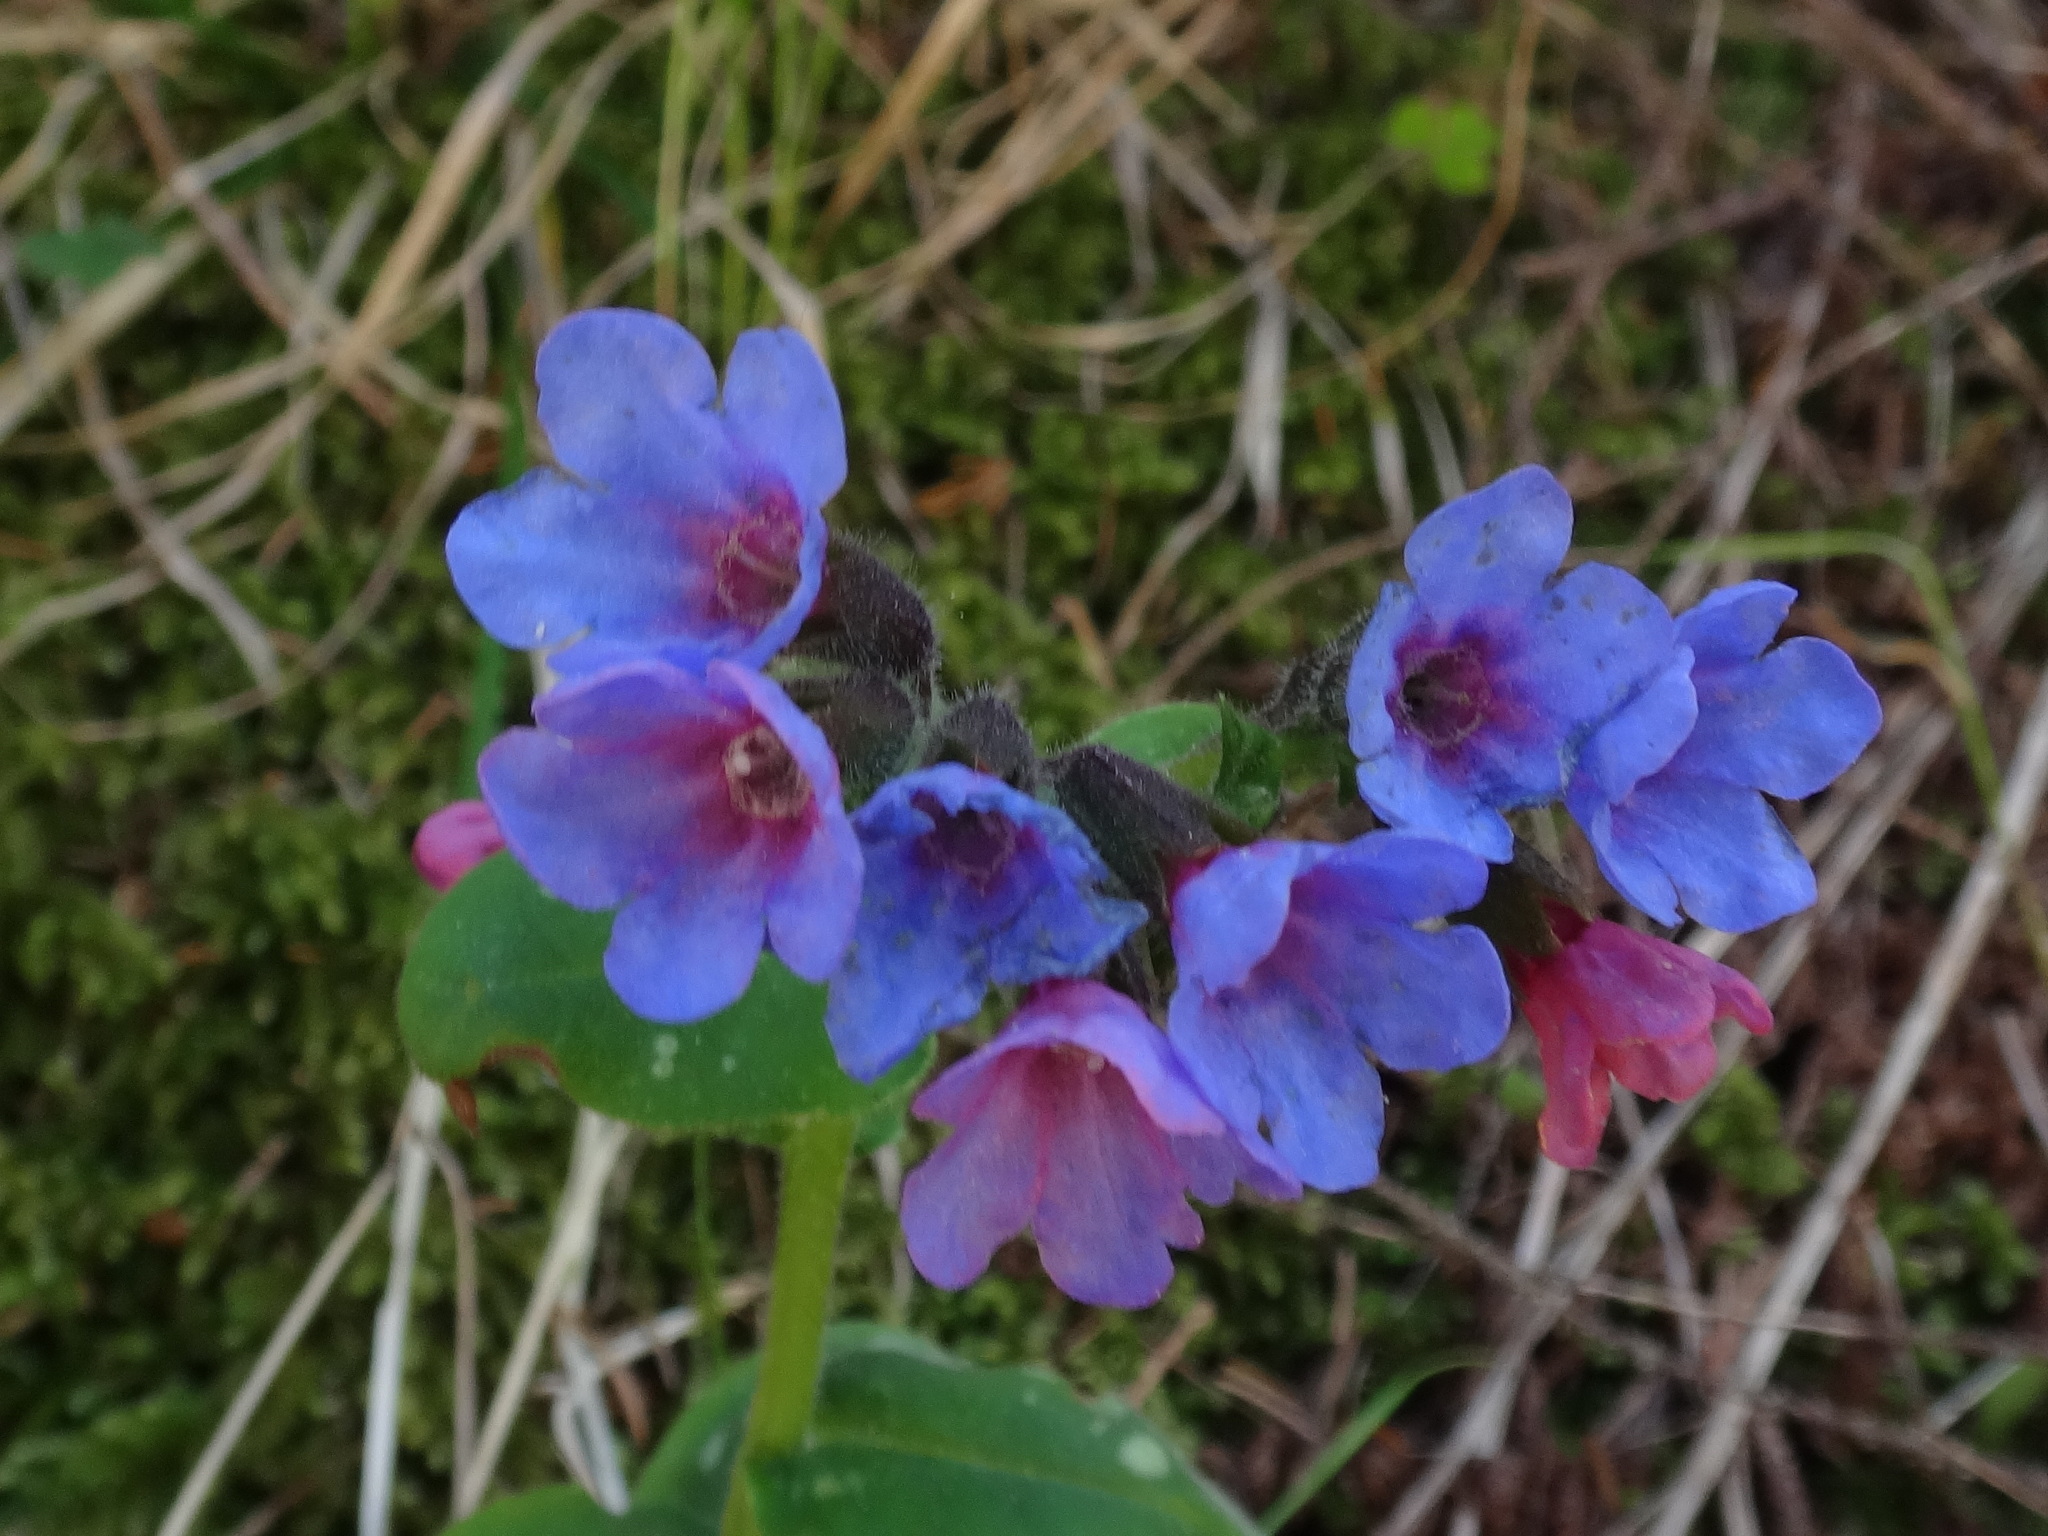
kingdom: Plantae
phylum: Tracheophyta
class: Magnoliopsida
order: Boraginales
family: Boraginaceae
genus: Pulmonaria
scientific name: Pulmonaria stiriaca
